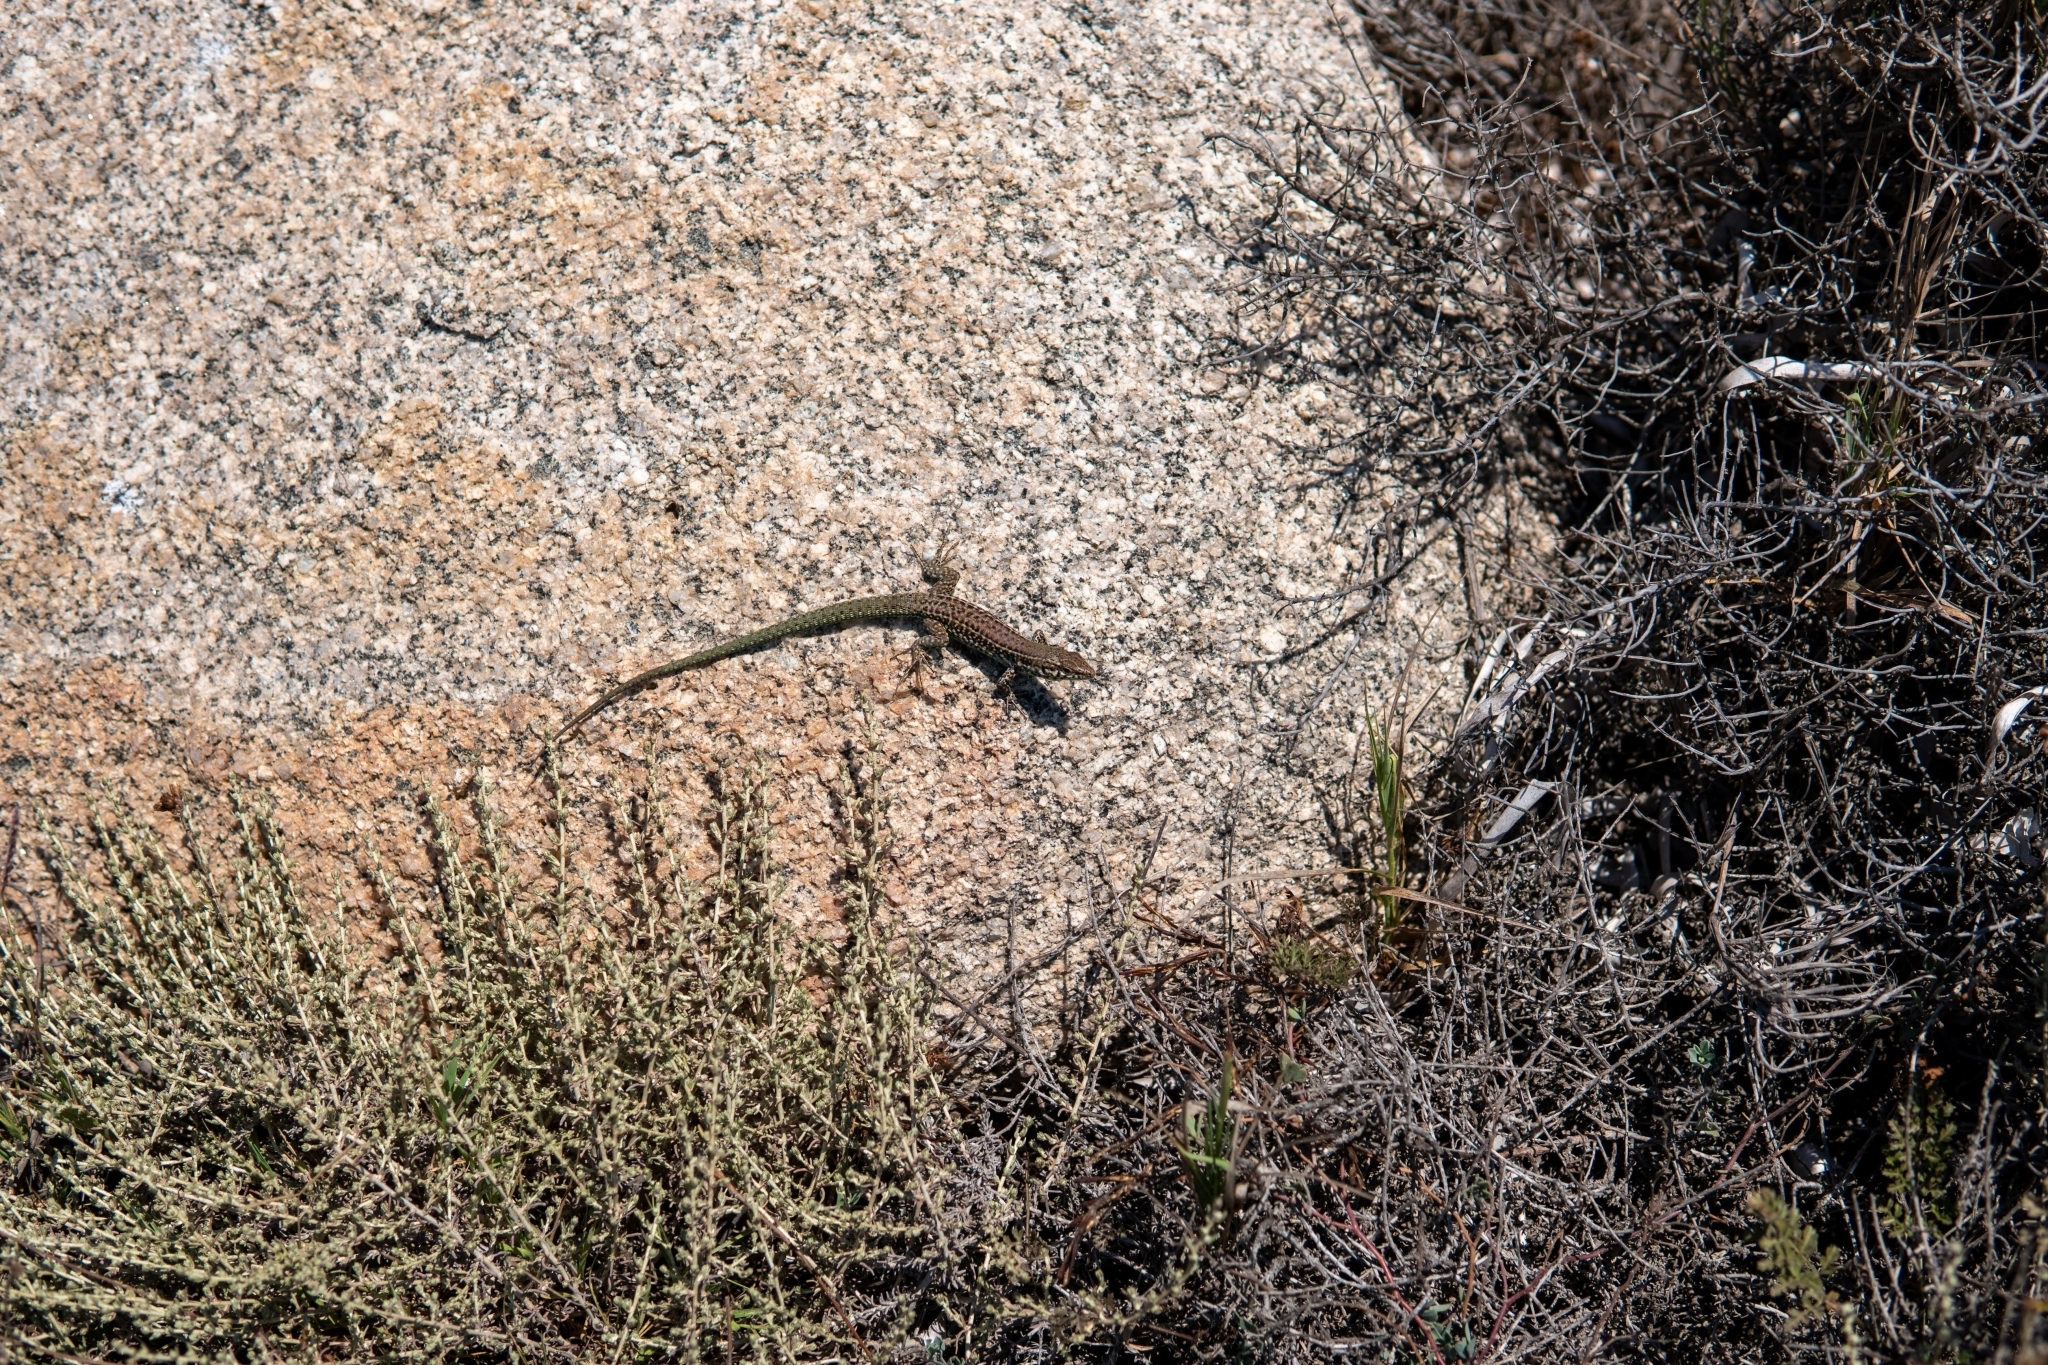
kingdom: Animalia
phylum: Chordata
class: Squamata
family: Lacertidae
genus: Podarcis
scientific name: Podarcis tiliguerta
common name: Tyrrhenian wall lizard
